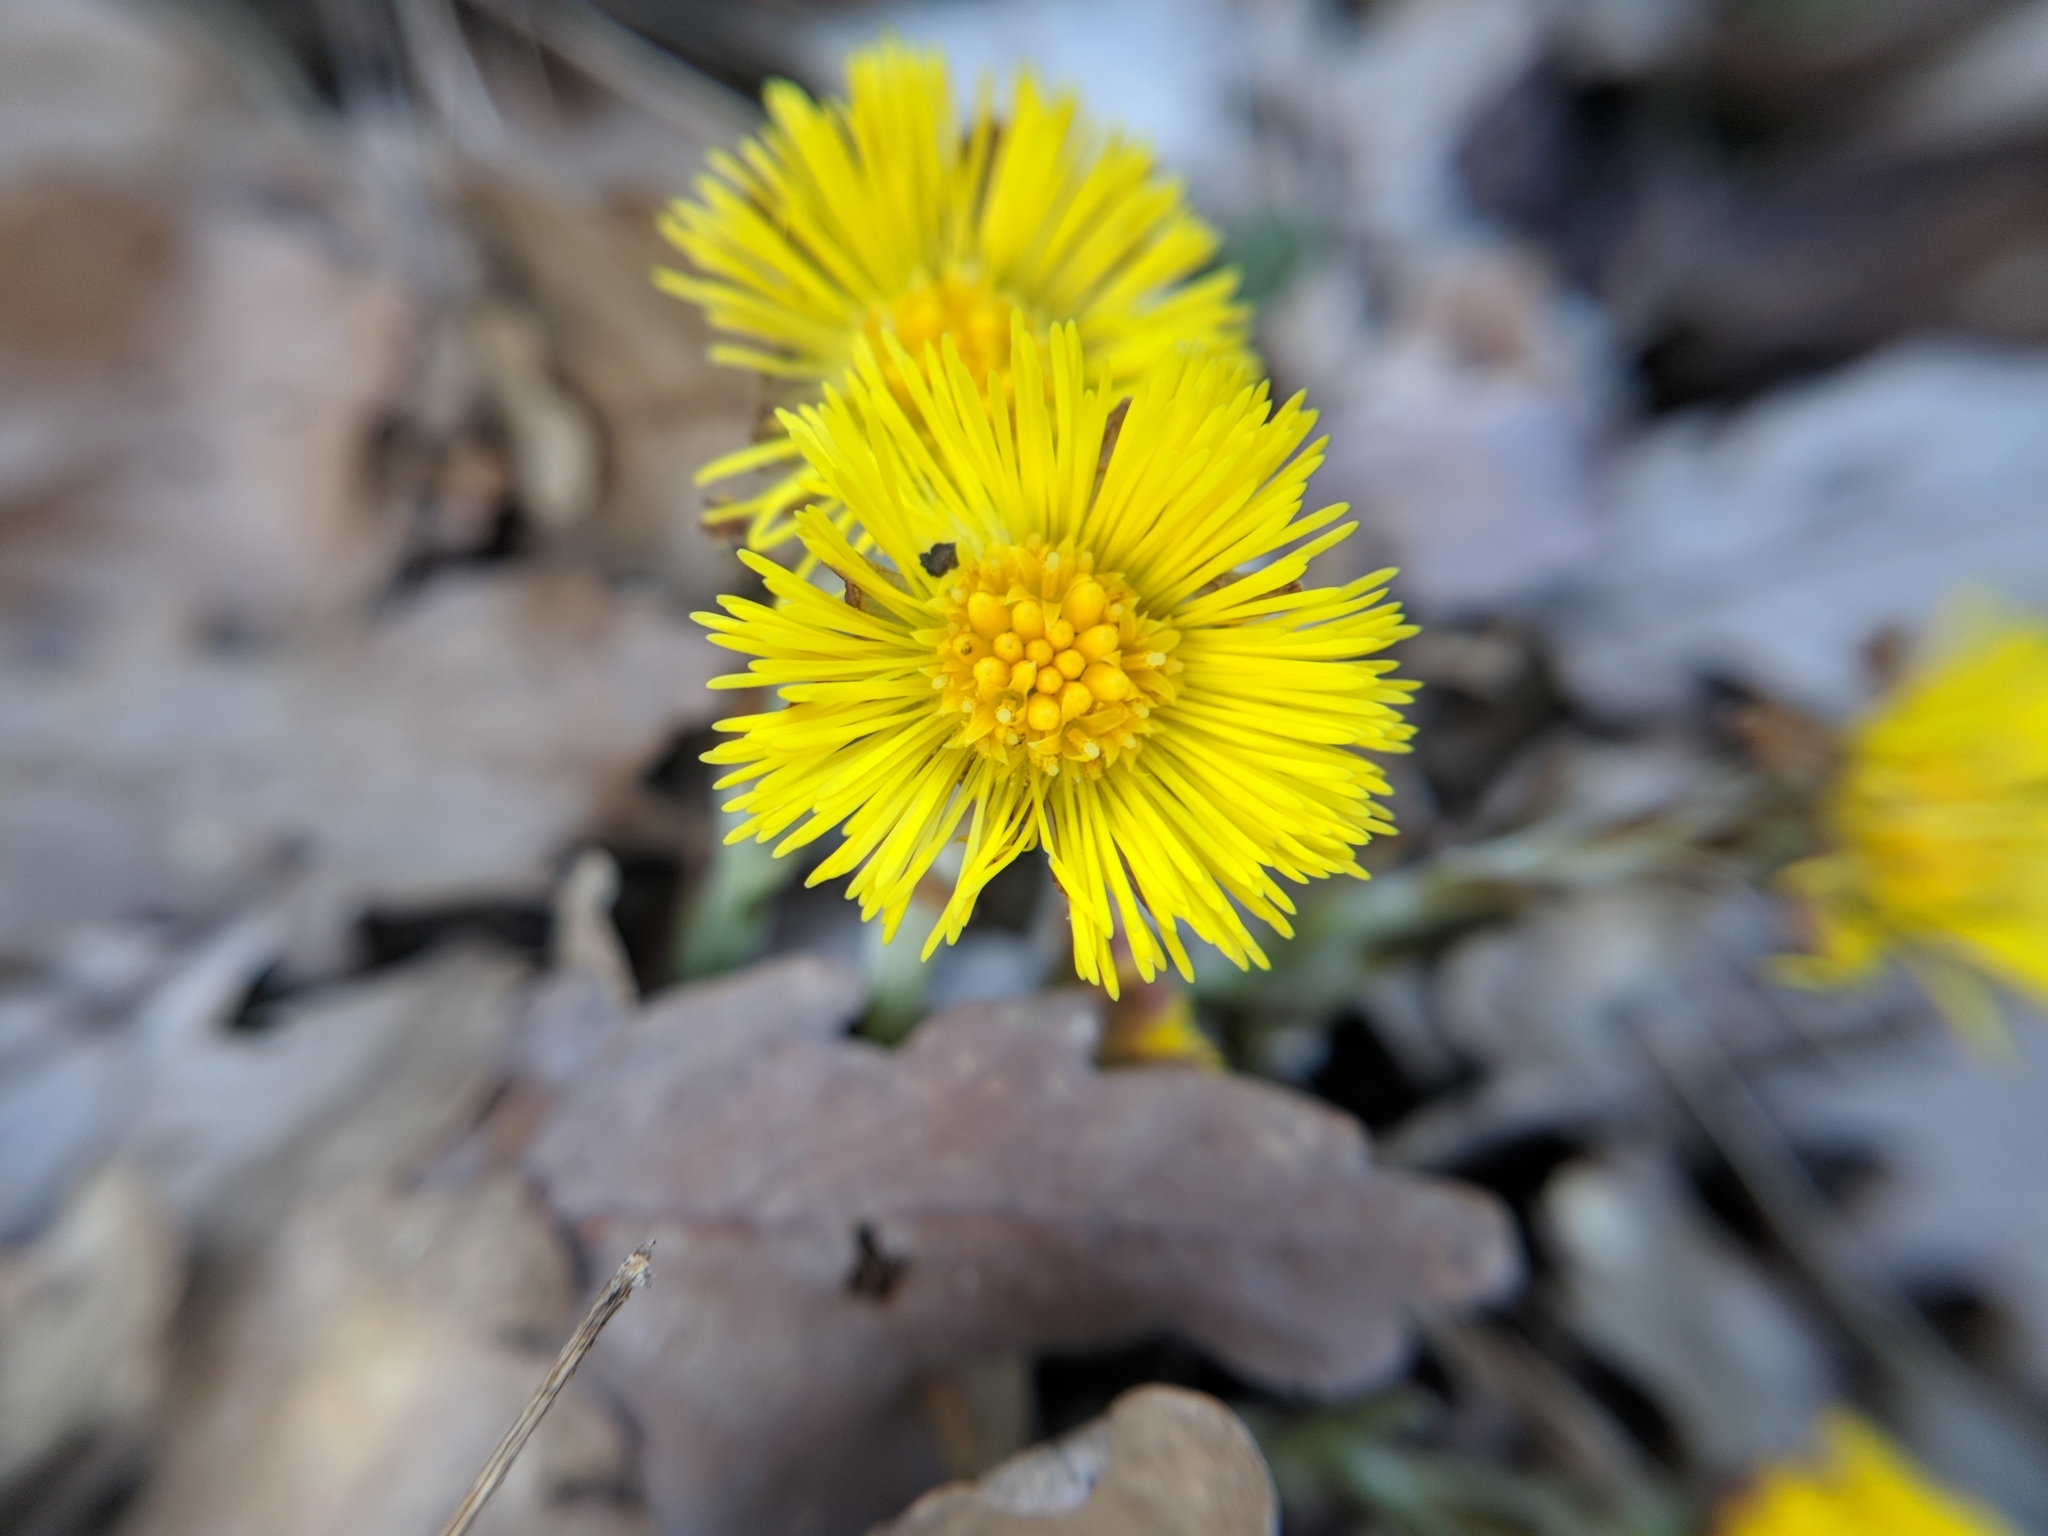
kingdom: Plantae
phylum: Tracheophyta
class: Magnoliopsida
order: Asterales
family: Asteraceae
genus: Tussilago
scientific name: Tussilago farfara
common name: Coltsfoot
